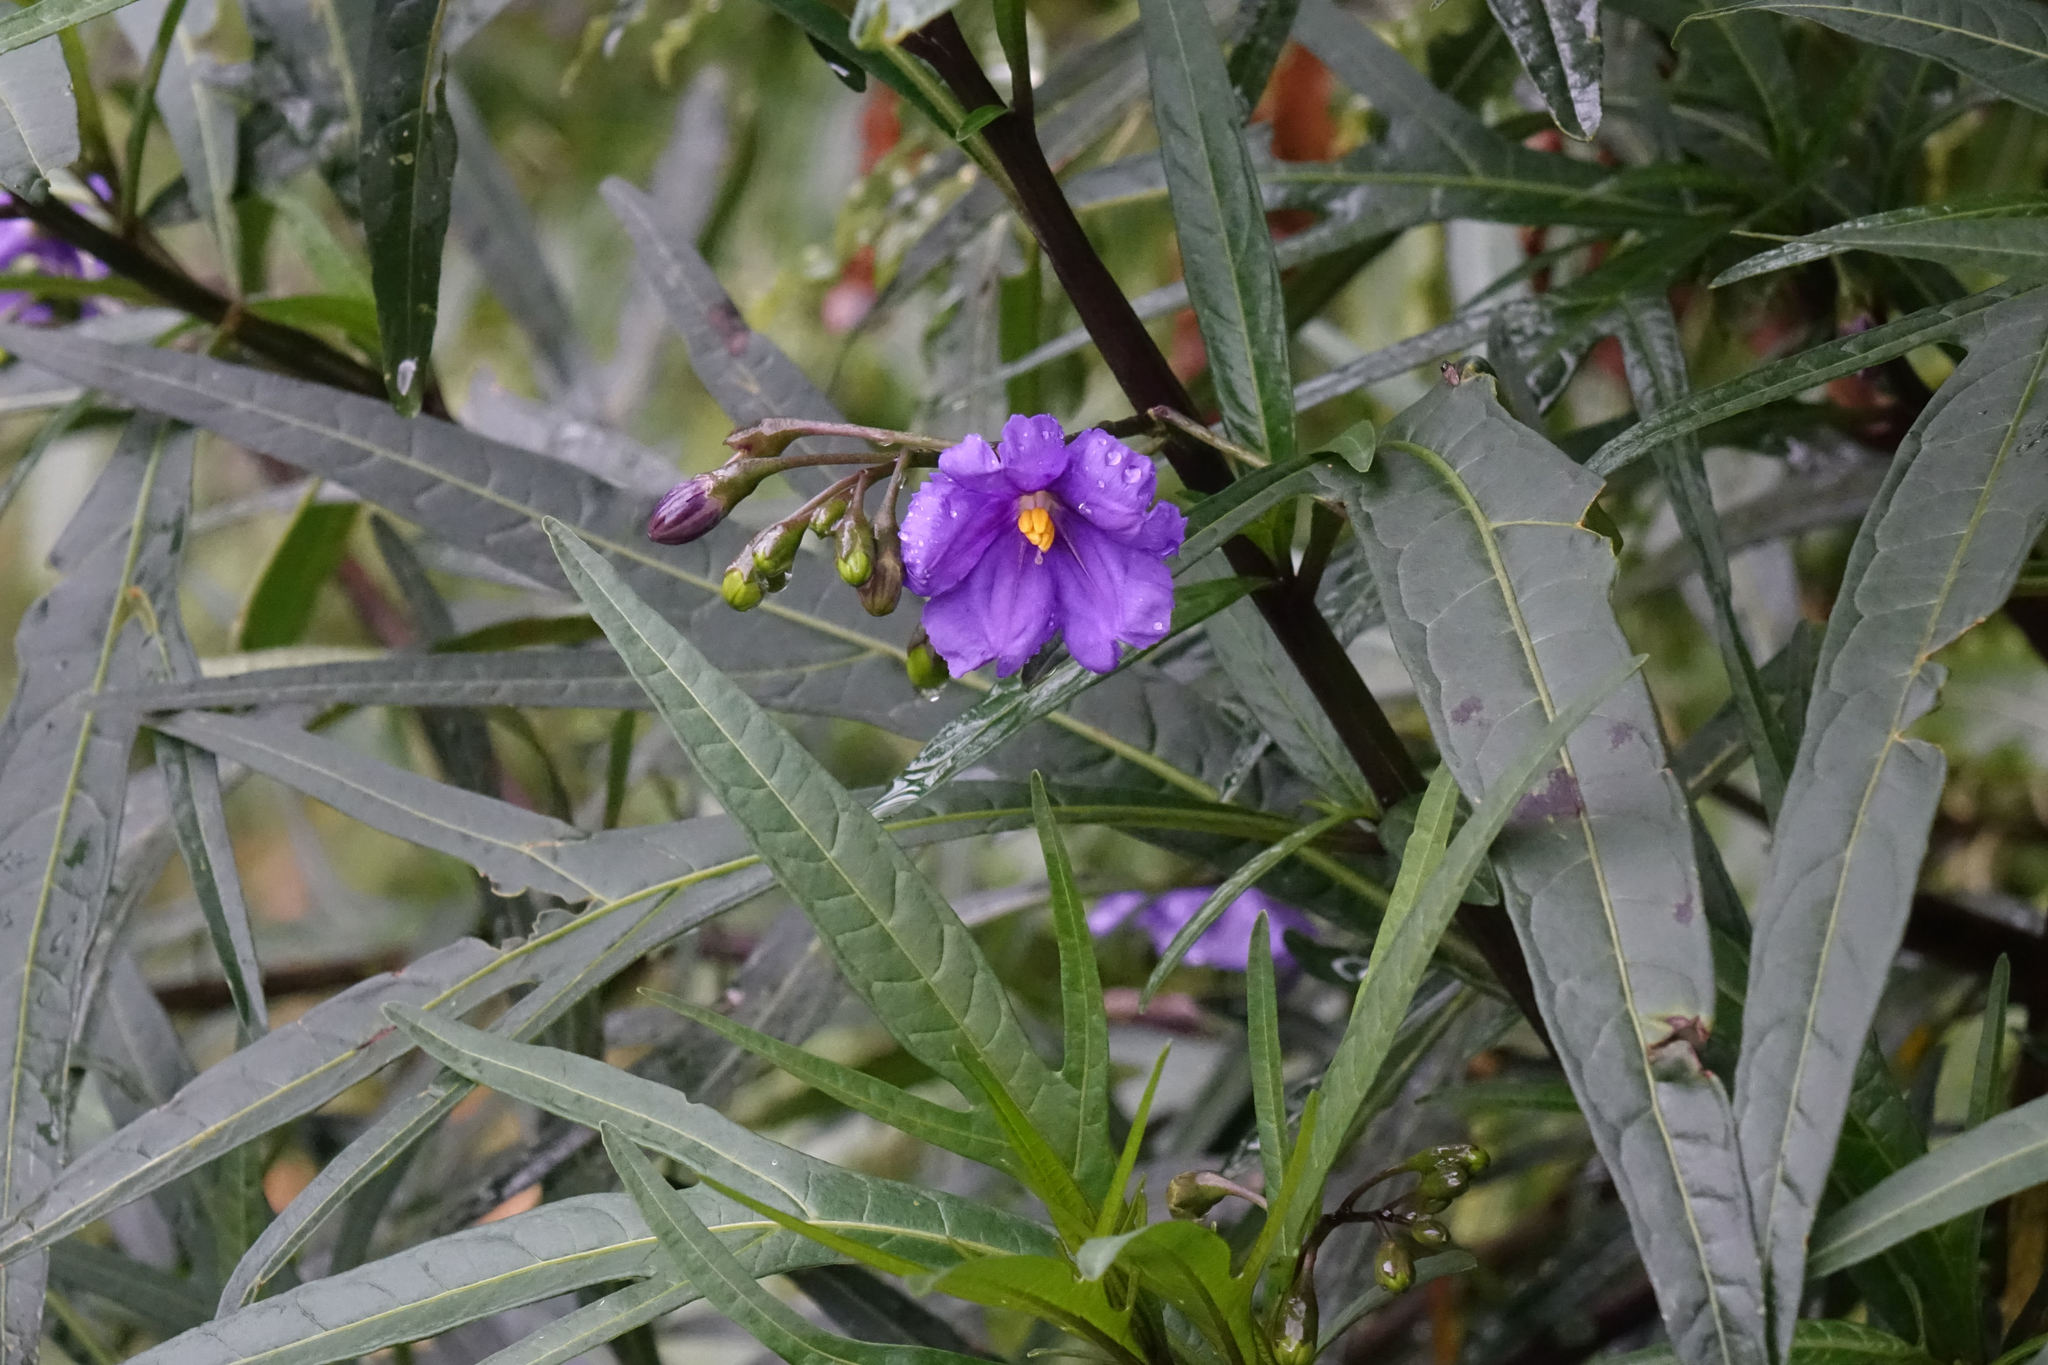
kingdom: Plantae
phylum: Tracheophyta
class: Magnoliopsida
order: Solanales
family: Solanaceae
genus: Solanum
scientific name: Solanum laciniatum
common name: Kangaroo-apple
